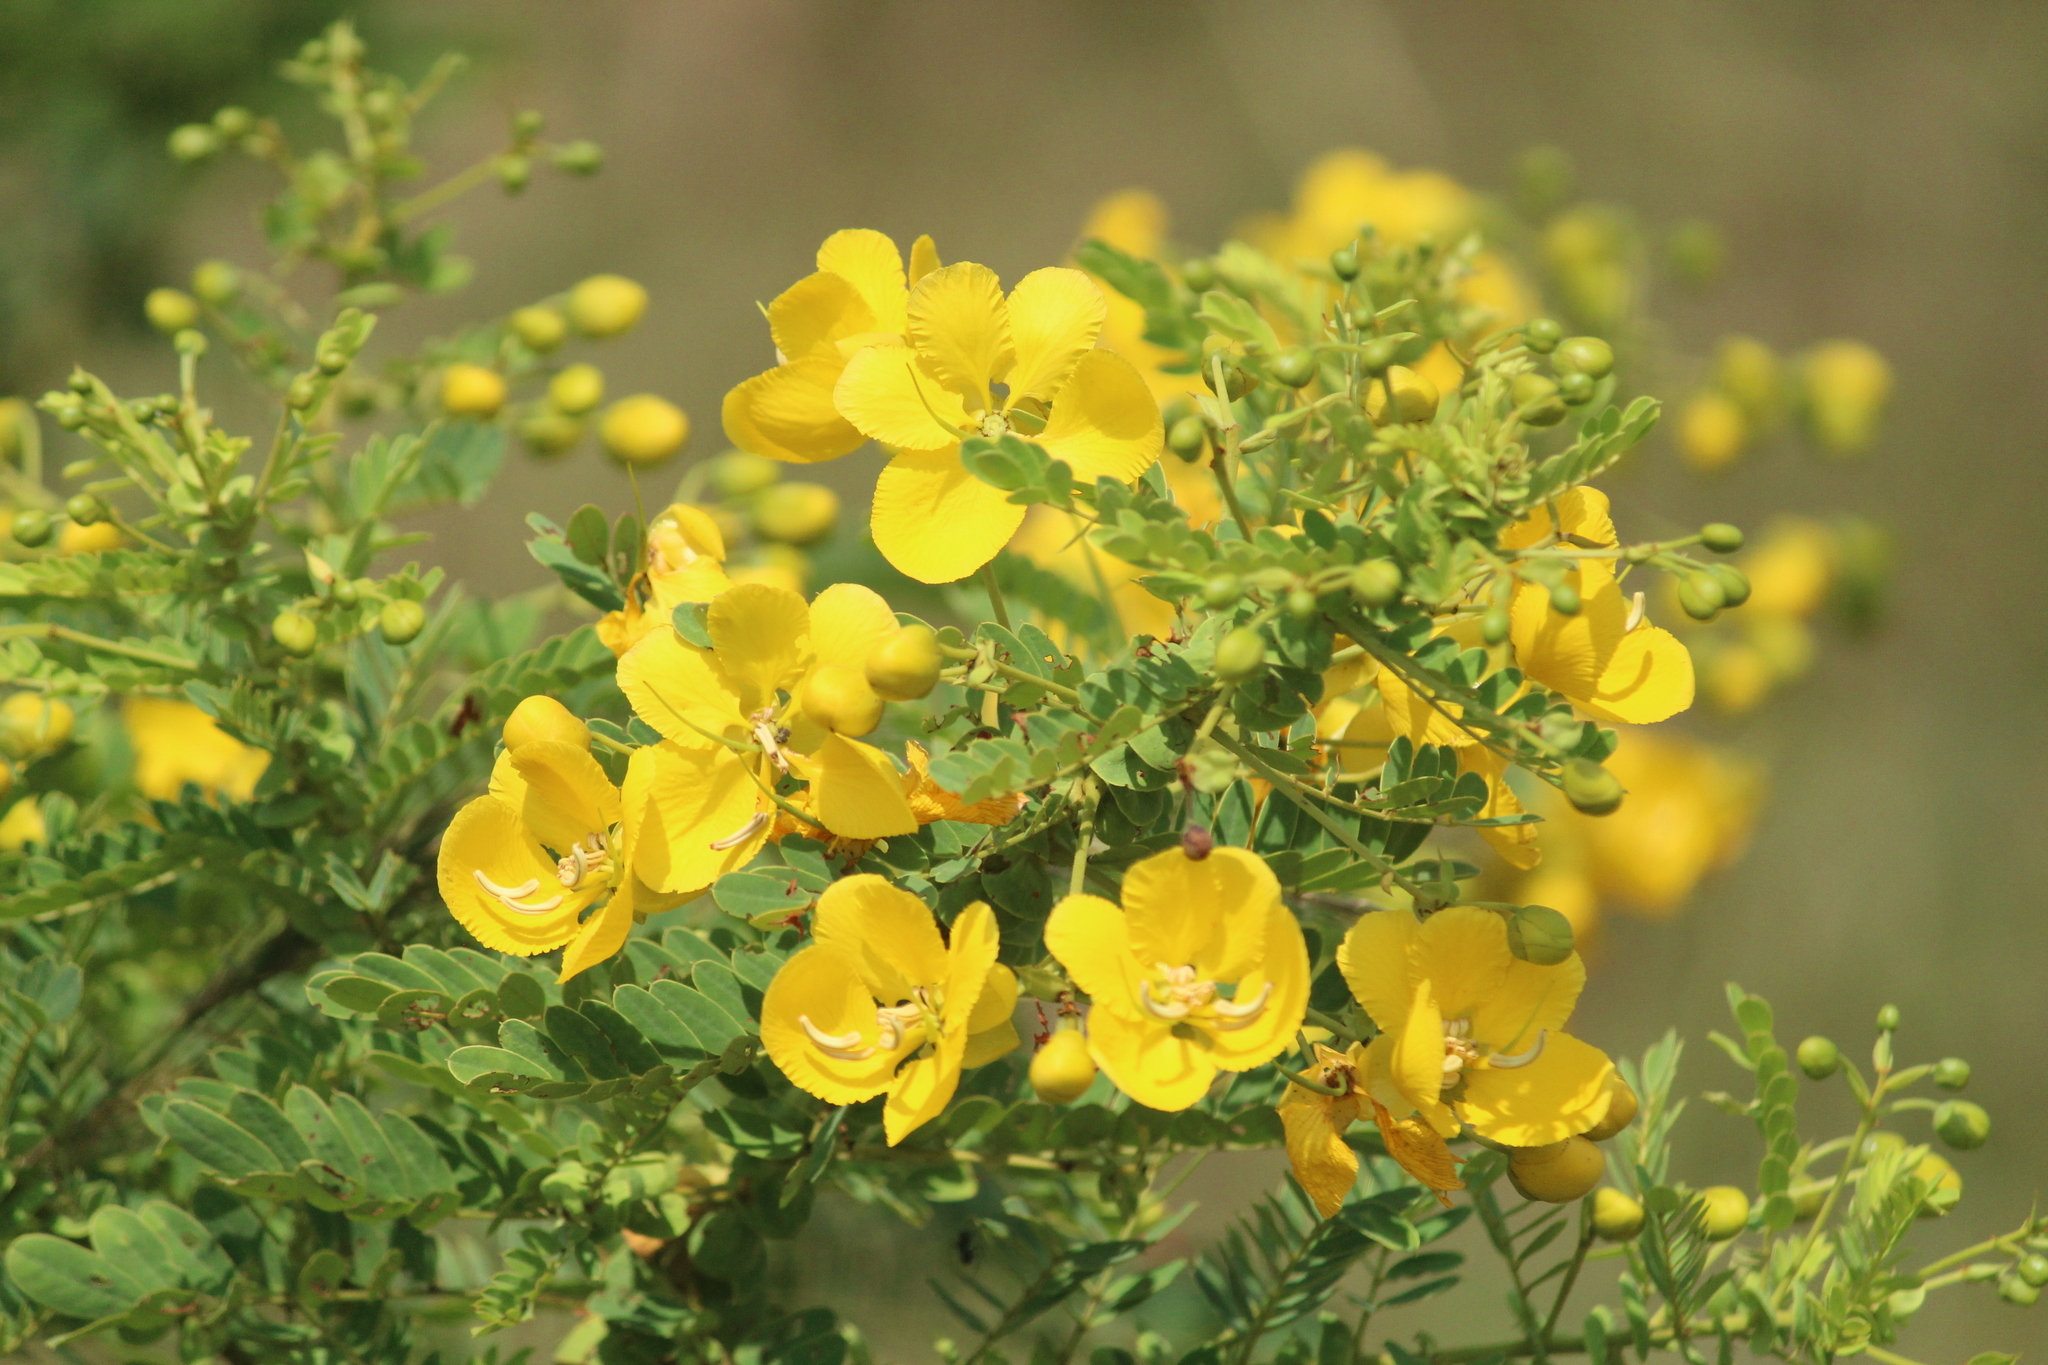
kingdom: Plantae
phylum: Tracheophyta
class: Magnoliopsida
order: Fabales
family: Fabaceae
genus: Senna
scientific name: Senna auriculata
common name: Tanner's cassia
